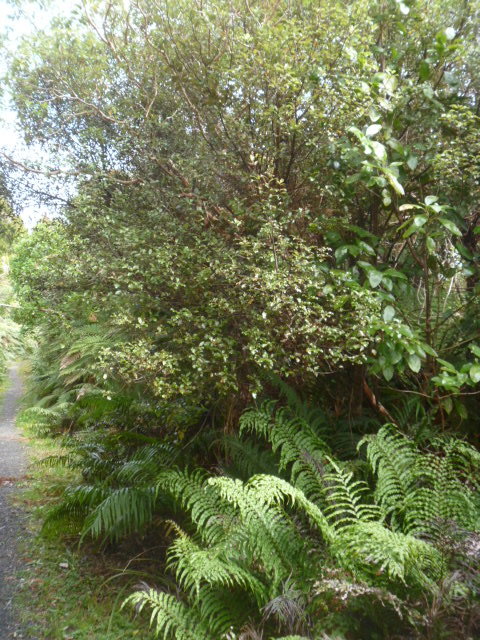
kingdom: Plantae
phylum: Tracheophyta
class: Magnoliopsida
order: Apiales
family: Pittosporaceae
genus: Pittosporum
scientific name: Pittosporum tenuifolium
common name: Kohuhu
